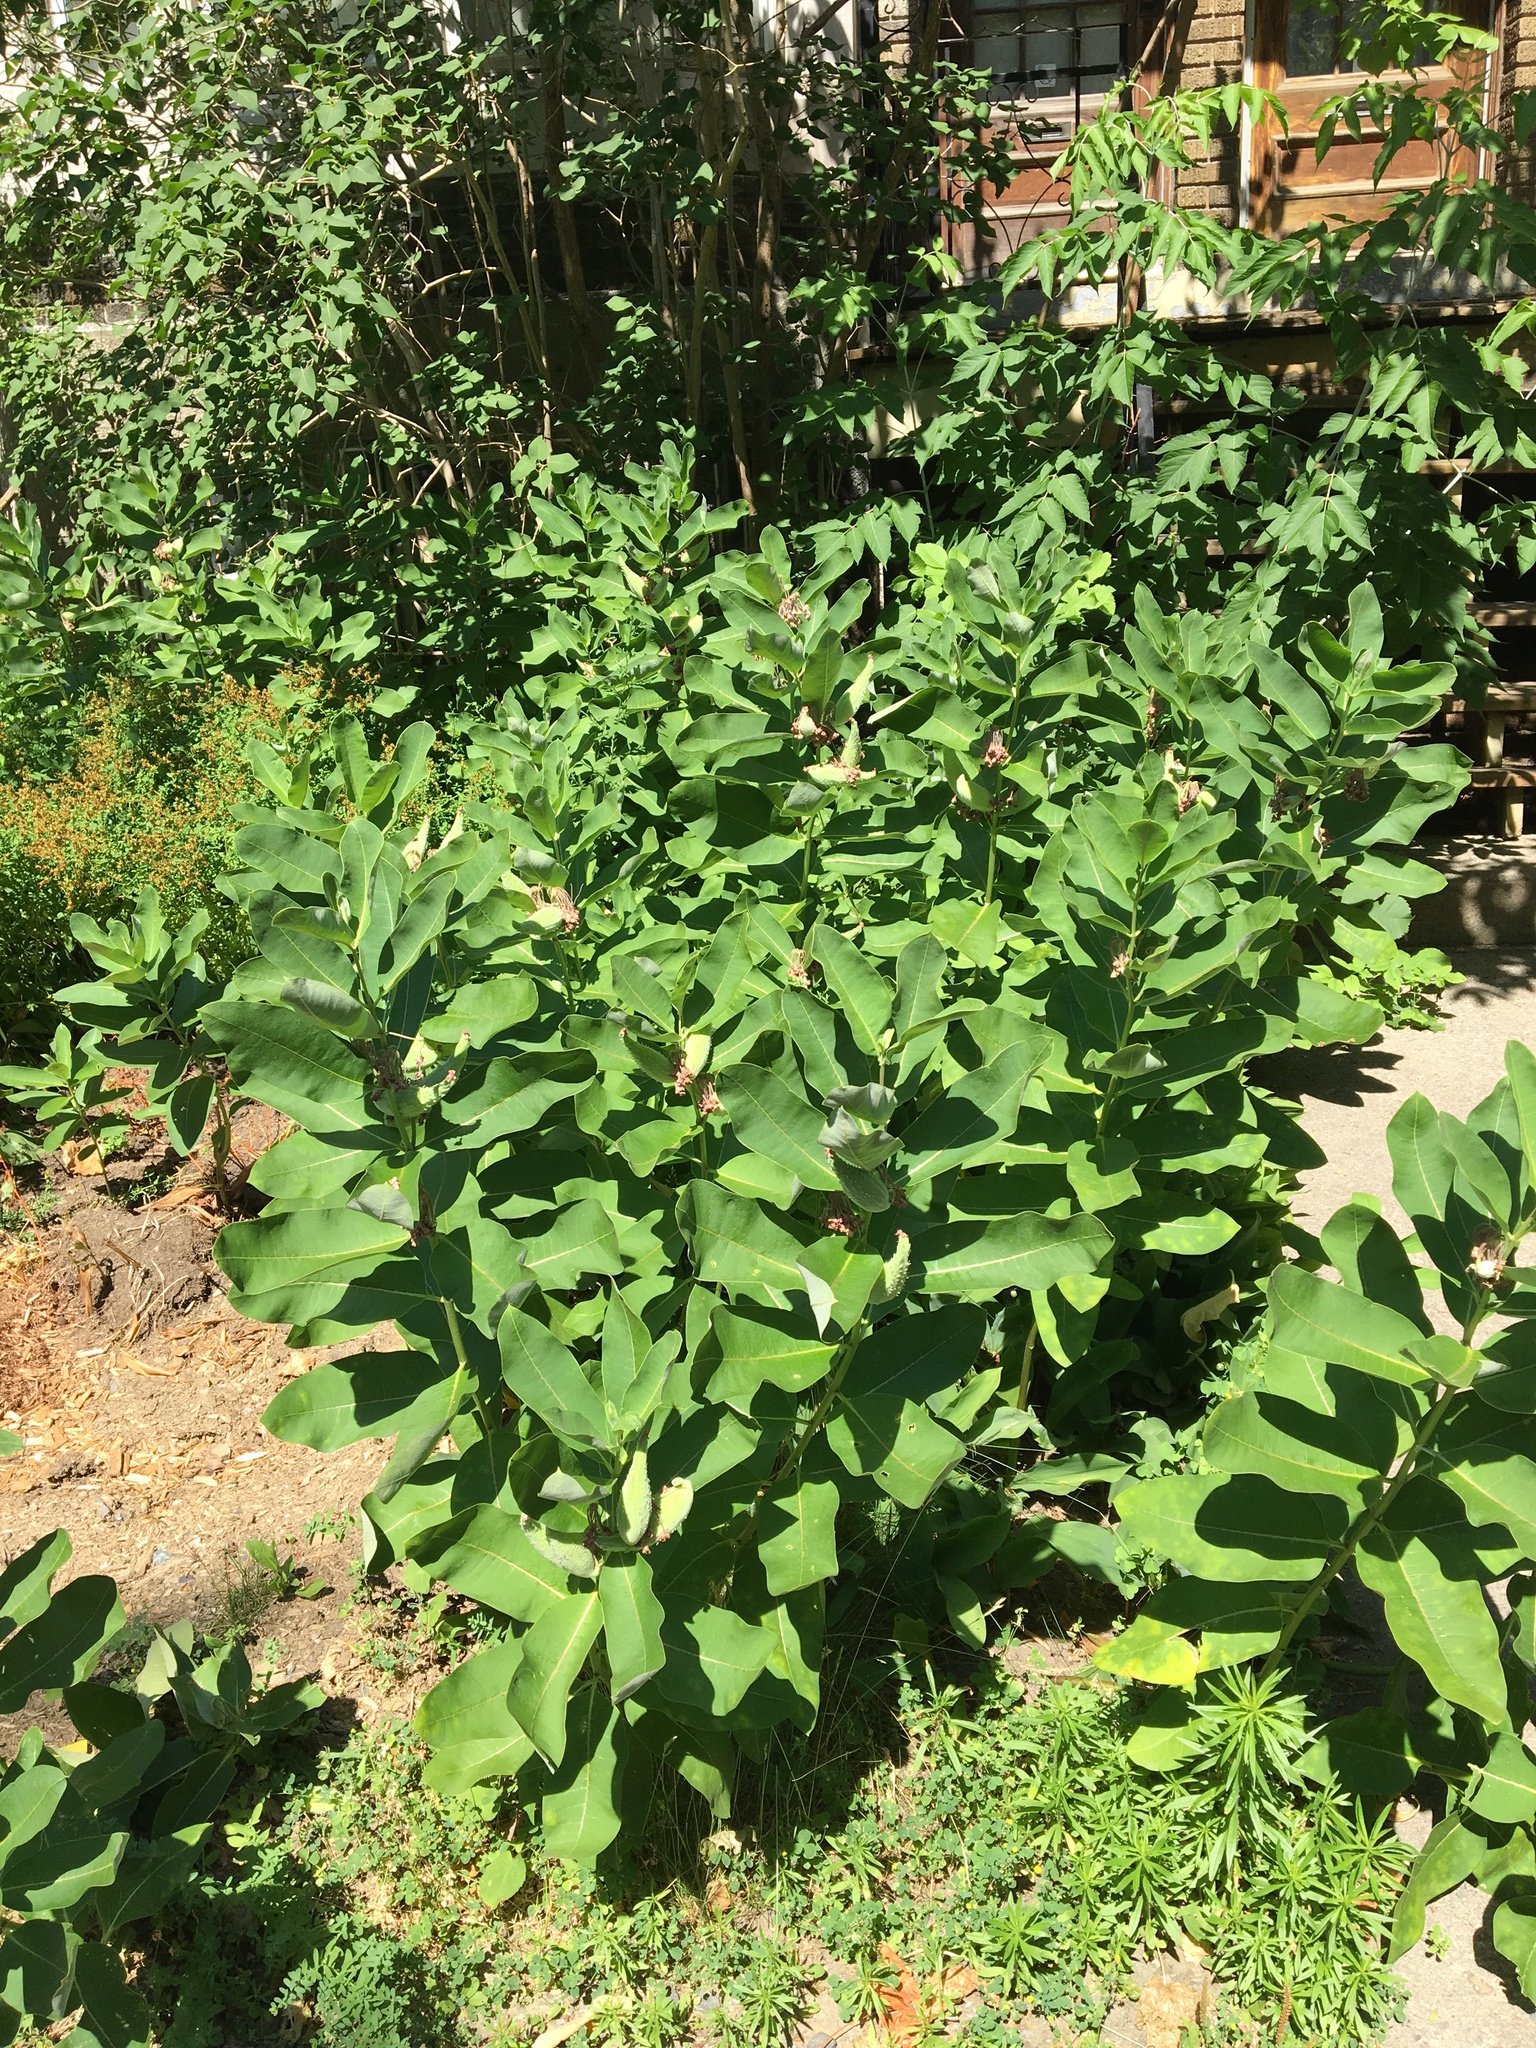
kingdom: Plantae
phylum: Tracheophyta
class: Magnoliopsida
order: Gentianales
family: Apocynaceae
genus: Asclepias
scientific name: Asclepias syriaca
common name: Common milkweed
